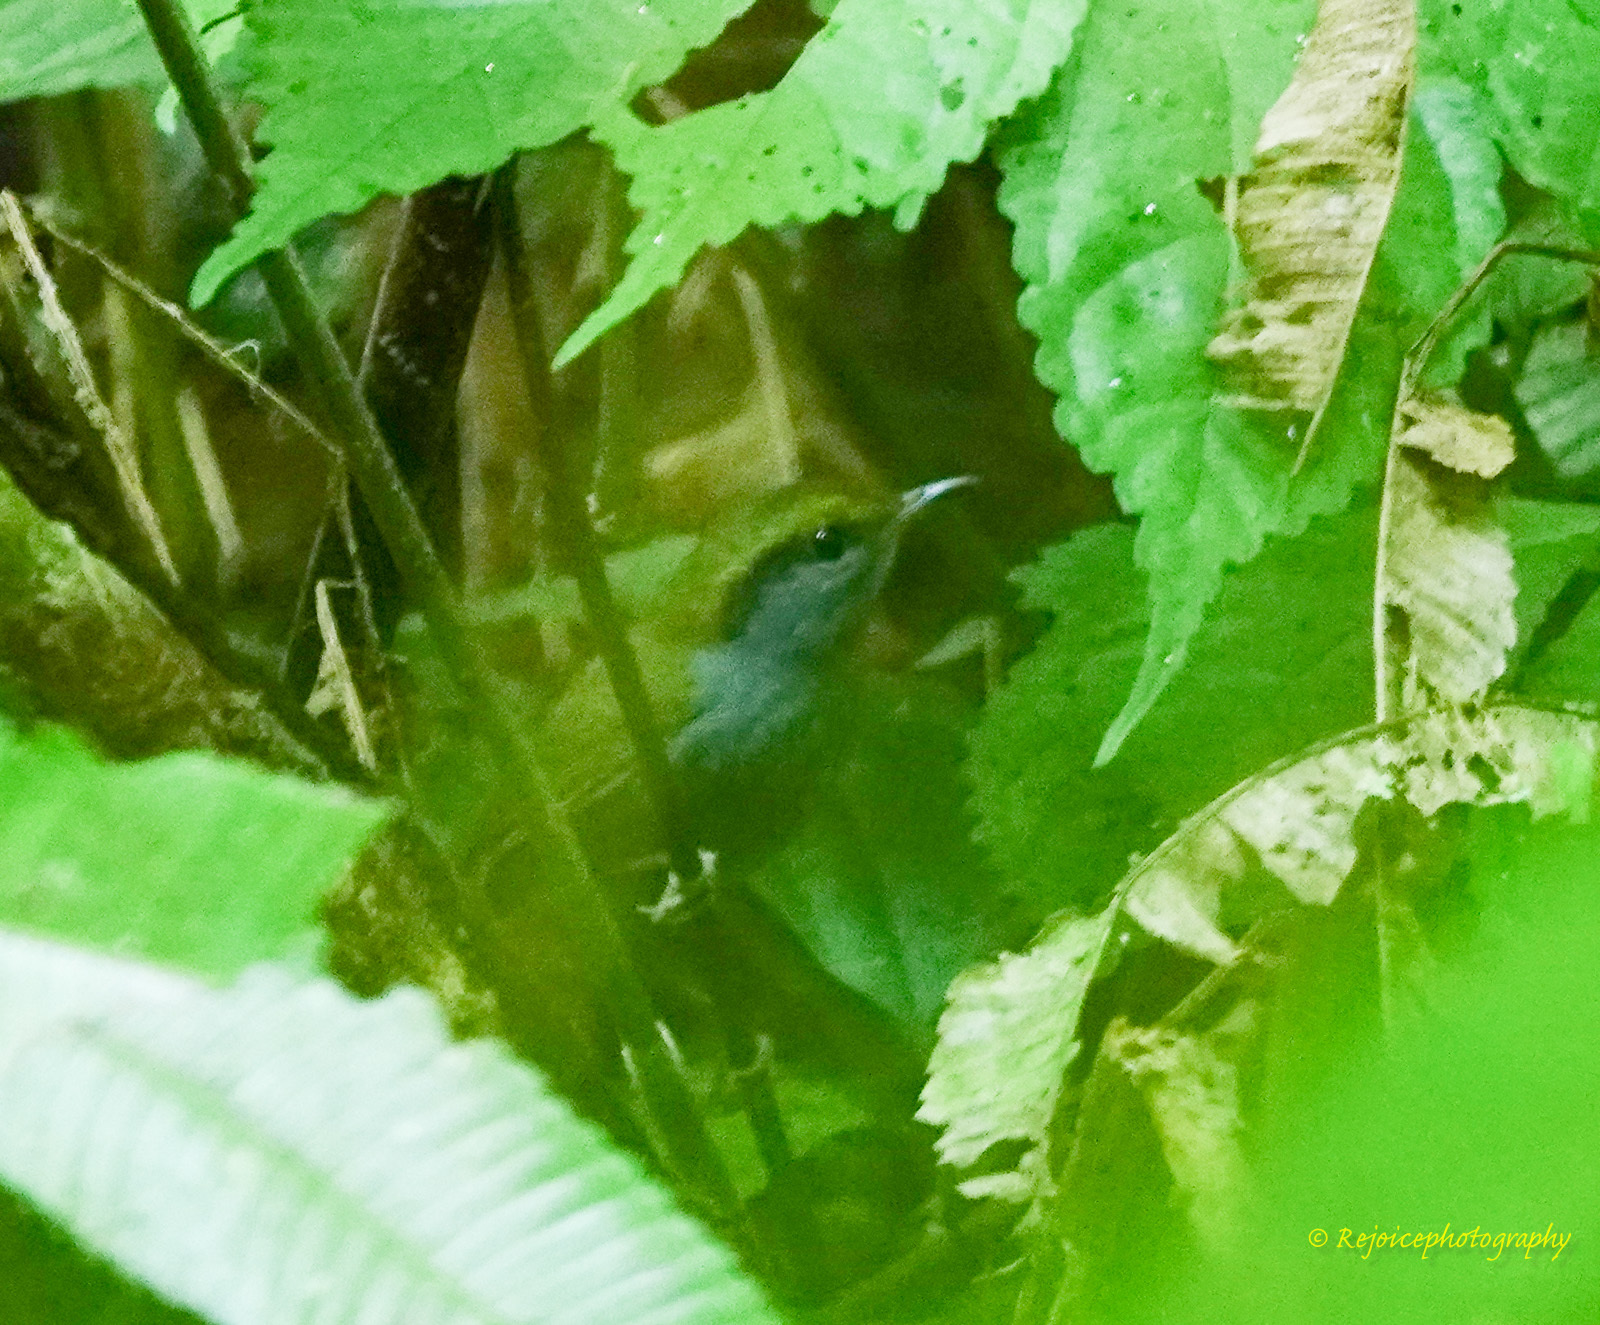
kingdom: Animalia
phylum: Chordata
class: Aves
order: Passeriformes
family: Cettiidae
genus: Tesia
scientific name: Tesia cyaniventer
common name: Grey-bellied tesia
